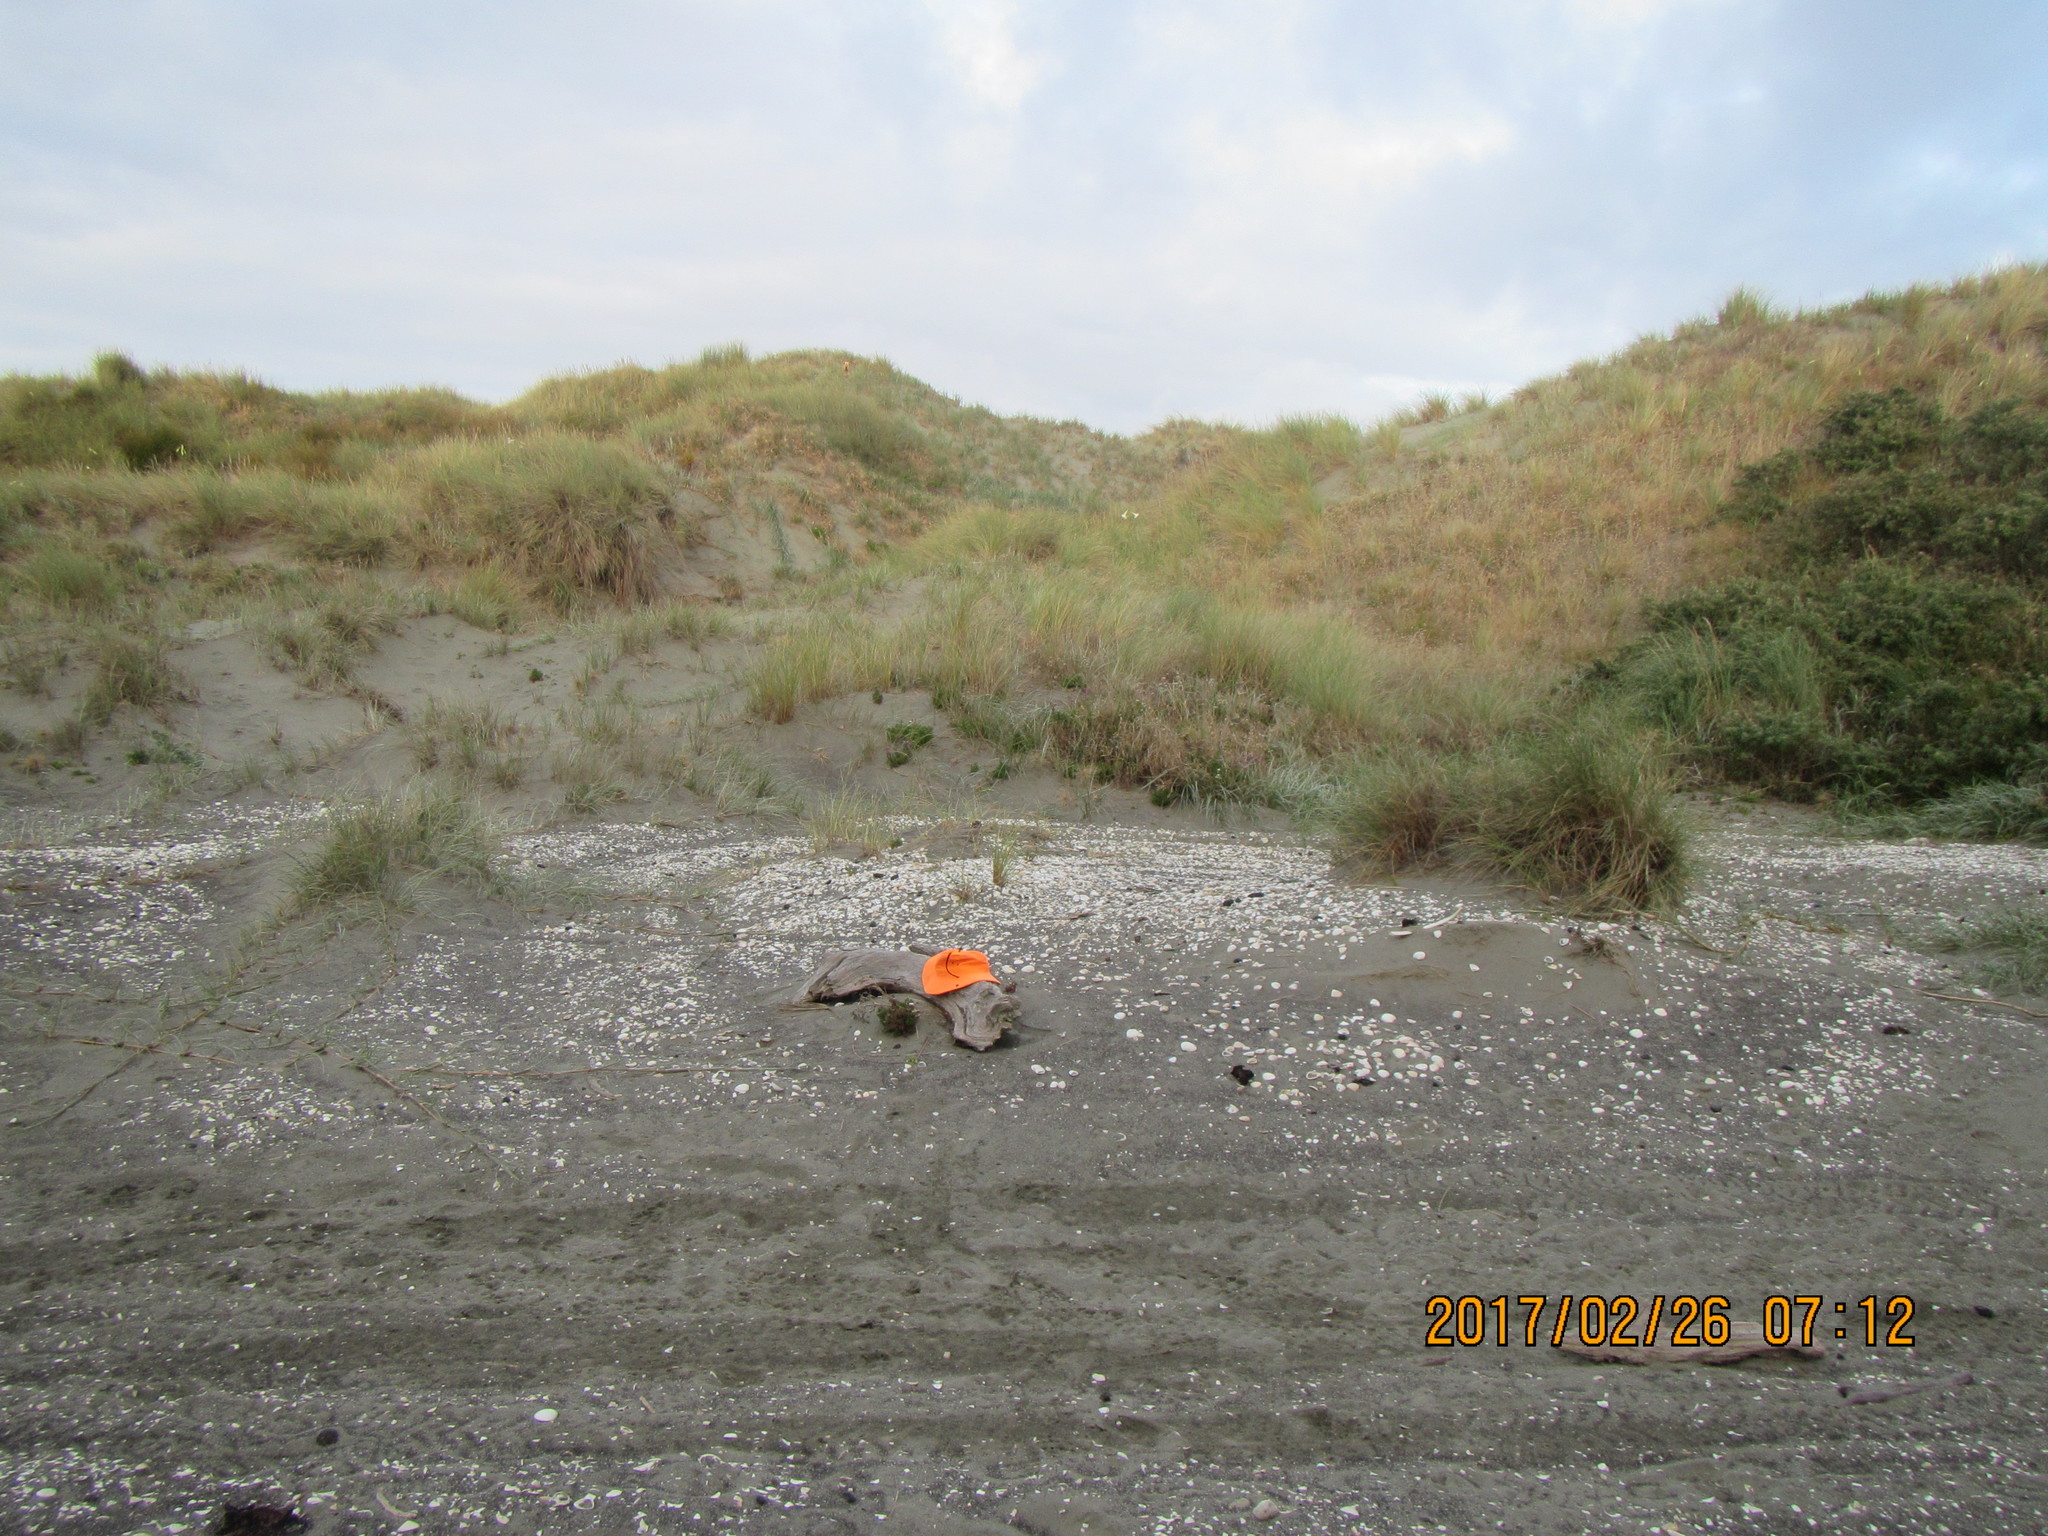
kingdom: Animalia
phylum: Arthropoda
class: Insecta
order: Dermaptera
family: Anisolabididae
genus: Anisolabis
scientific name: Anisolabis littorea
